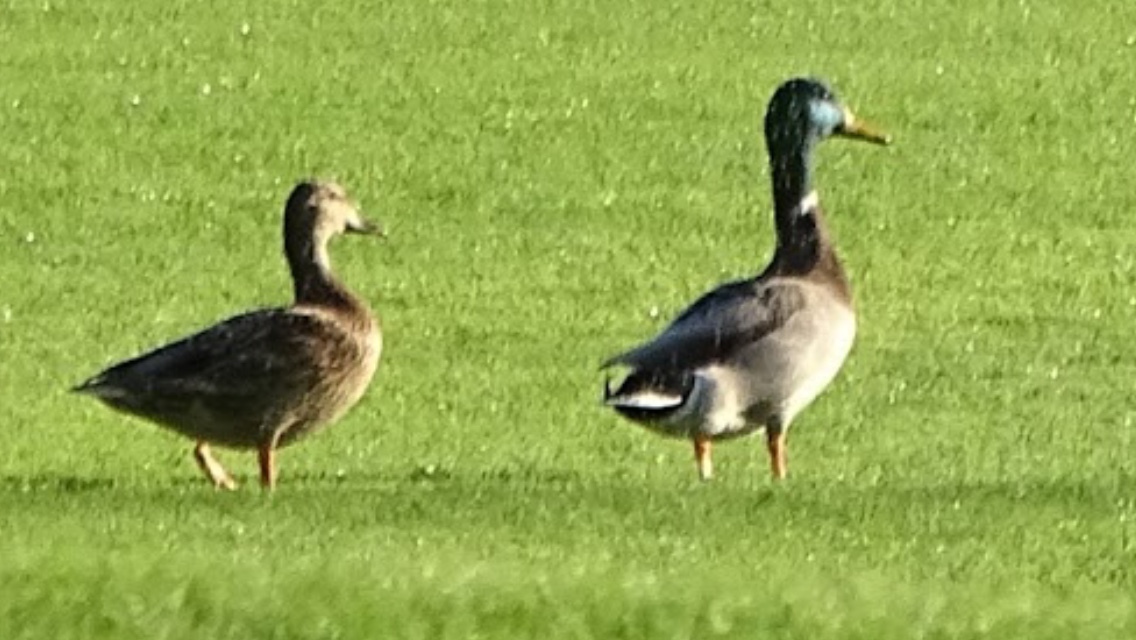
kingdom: Animalia
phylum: Chordata
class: Aves
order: Anseriformes
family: Anatidae
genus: Anas
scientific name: Anas platyrhynchos
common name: Mallard
